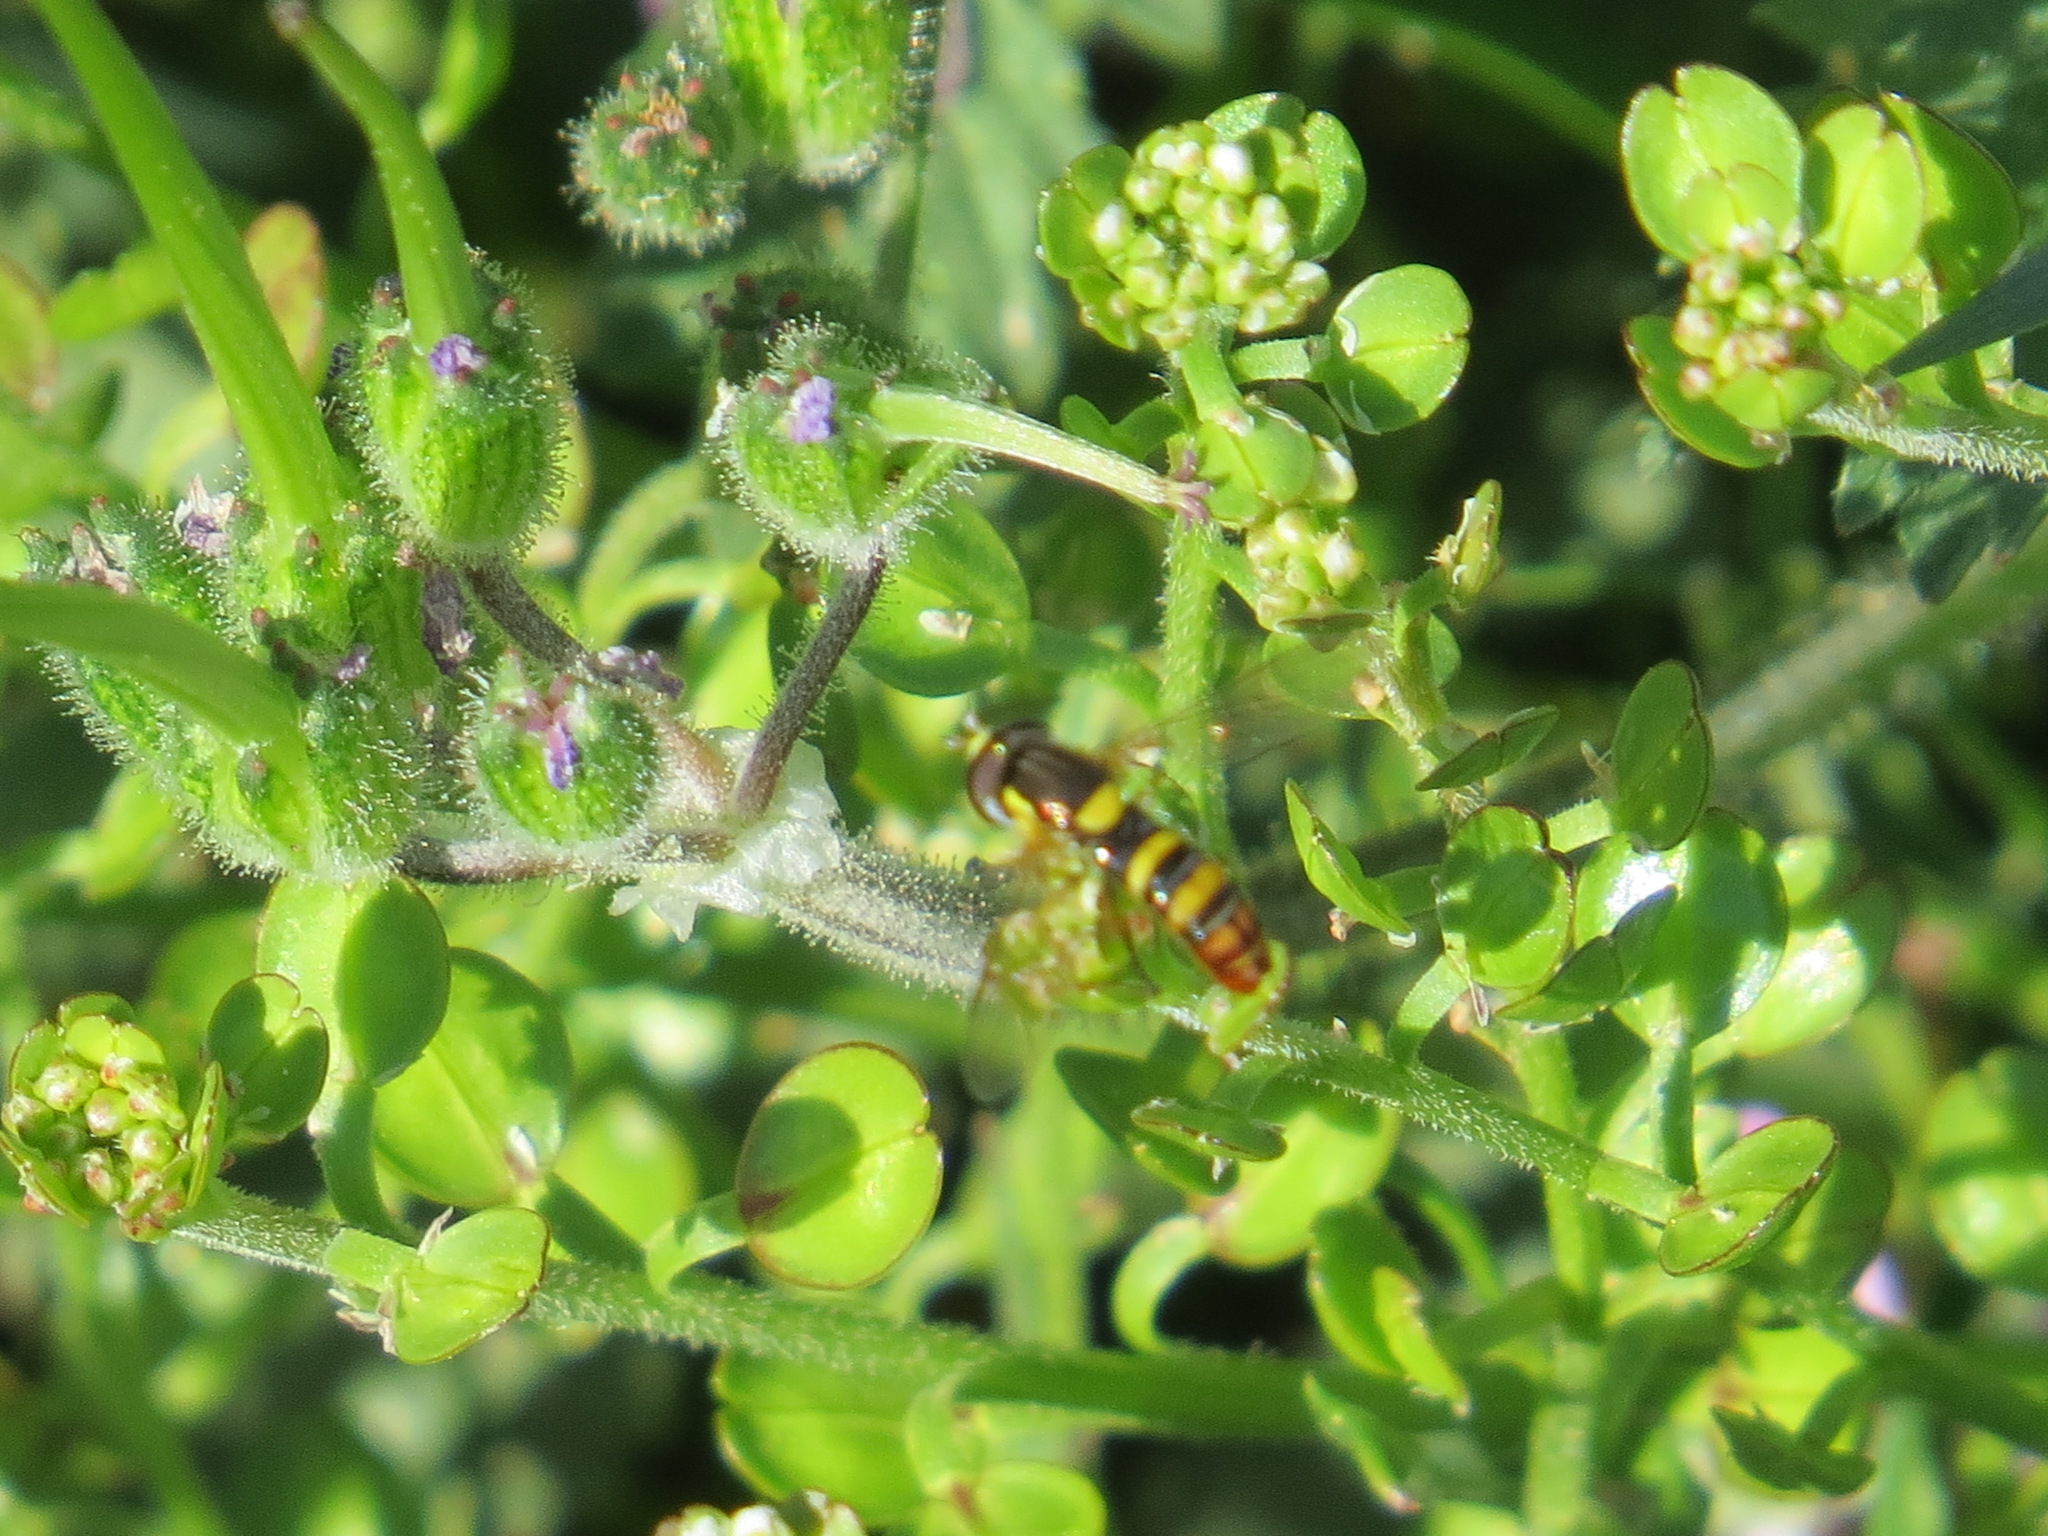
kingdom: Animalia
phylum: Arthropoda
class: Insecta
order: Diptera
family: Syrphidae
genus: Sphaerophoria
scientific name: Sphaerophoria sulphuripes
